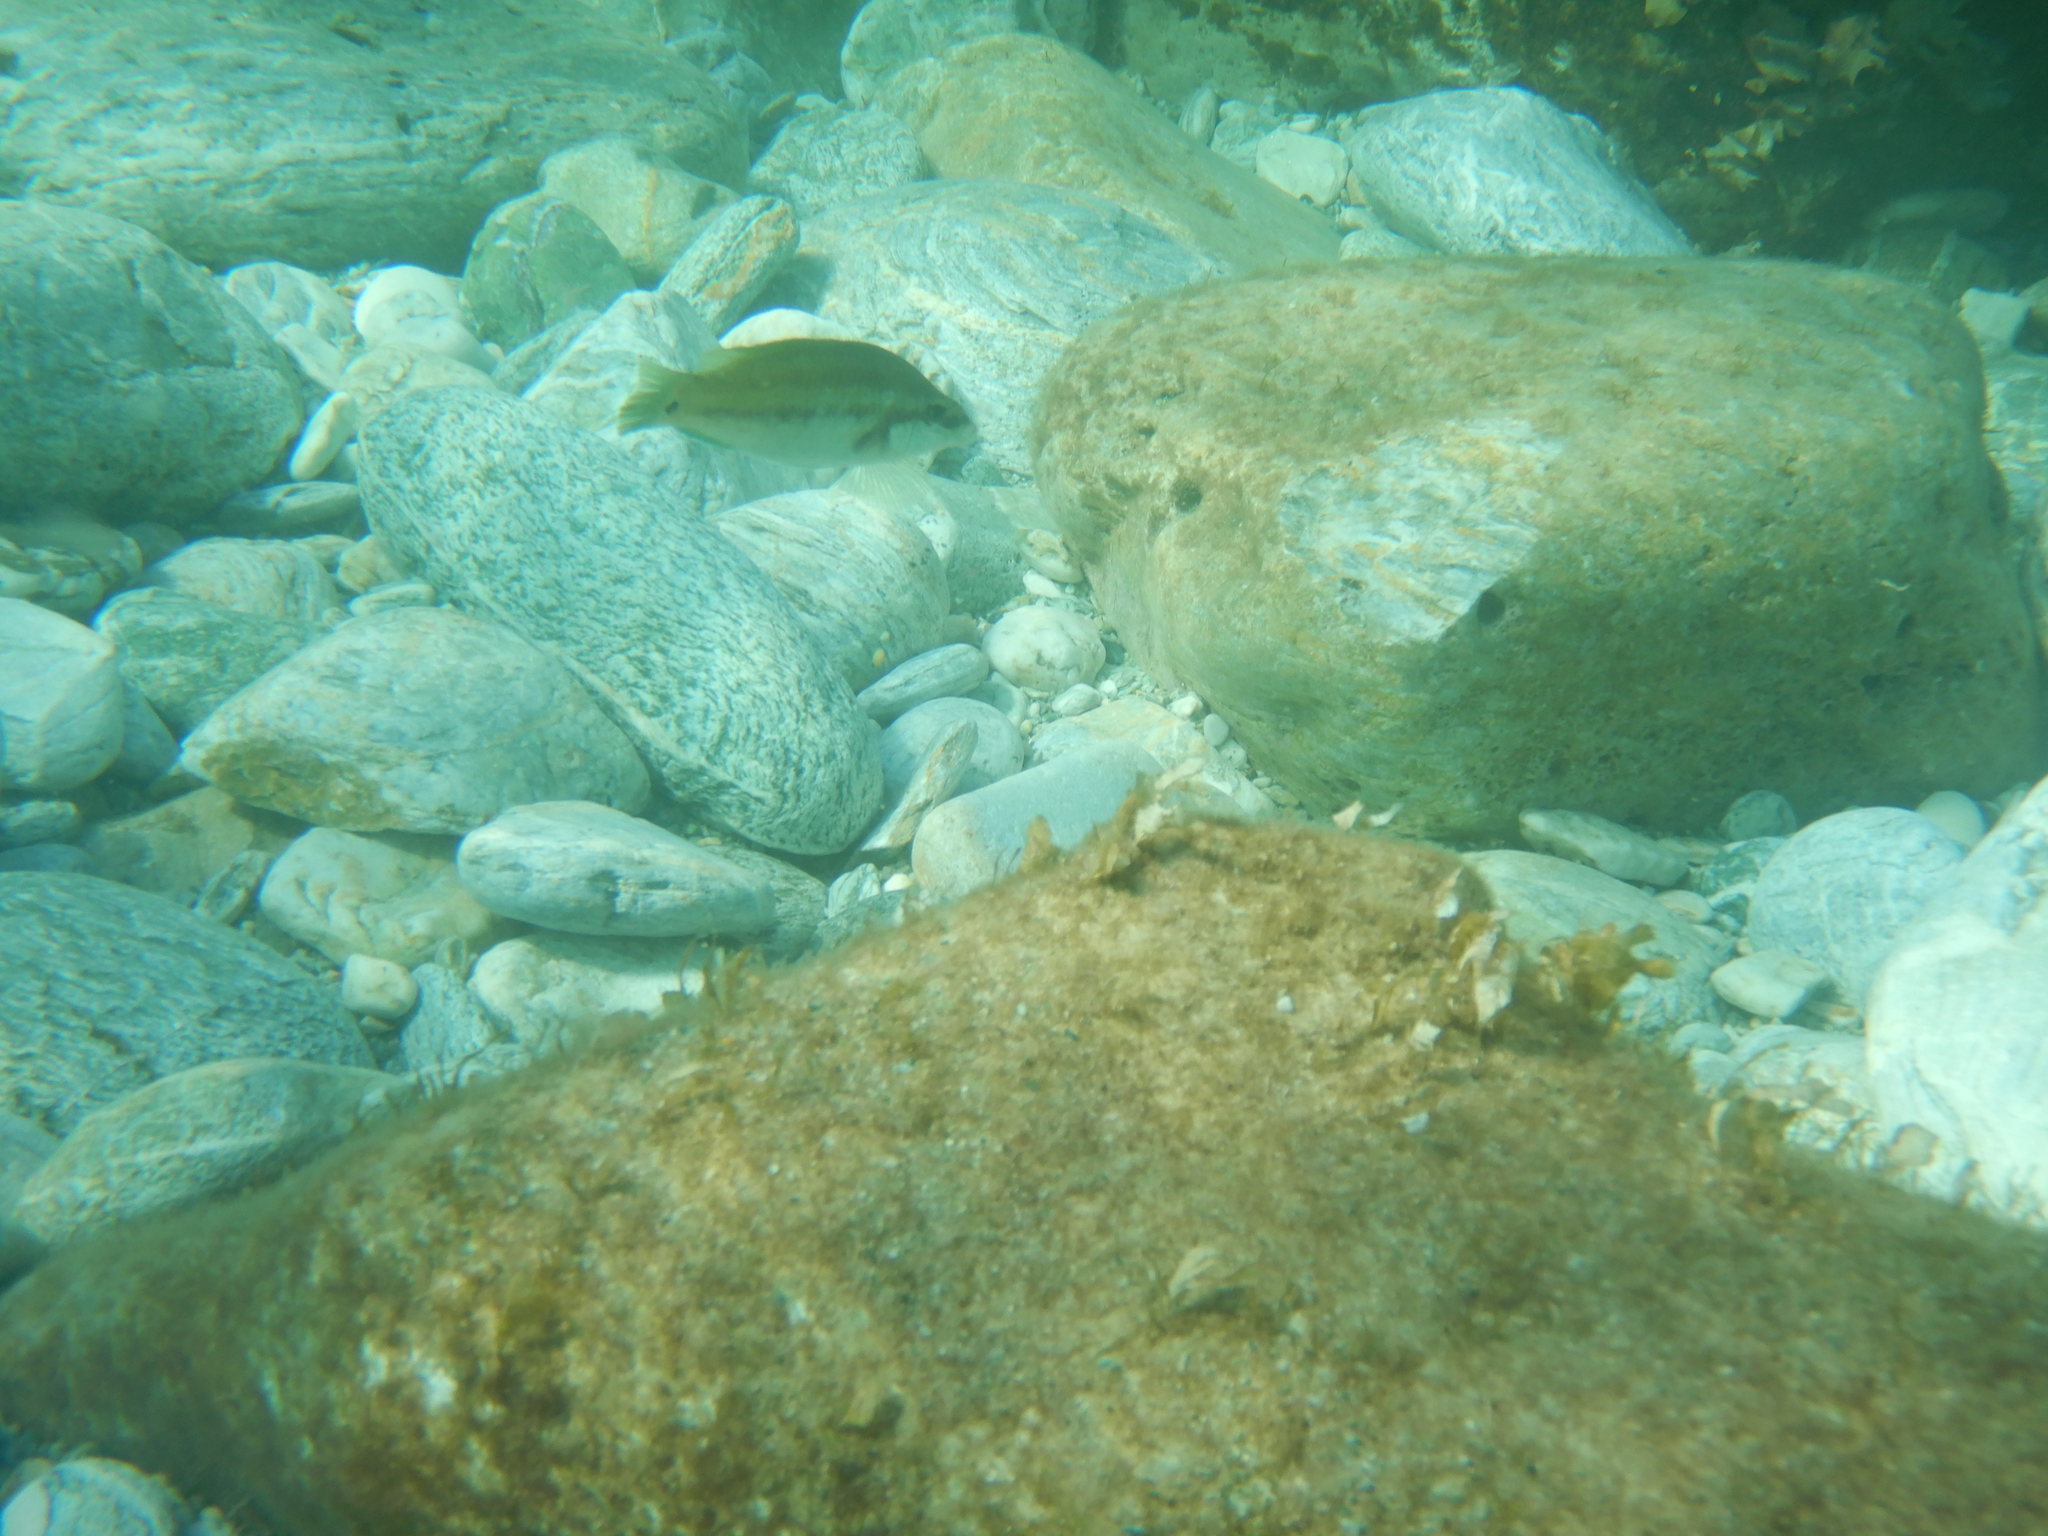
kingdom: Animalia
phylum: Chordata
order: Perciformes
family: Labridae
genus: Symphodus
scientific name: Symphodus tinca
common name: Peacock wrasse
